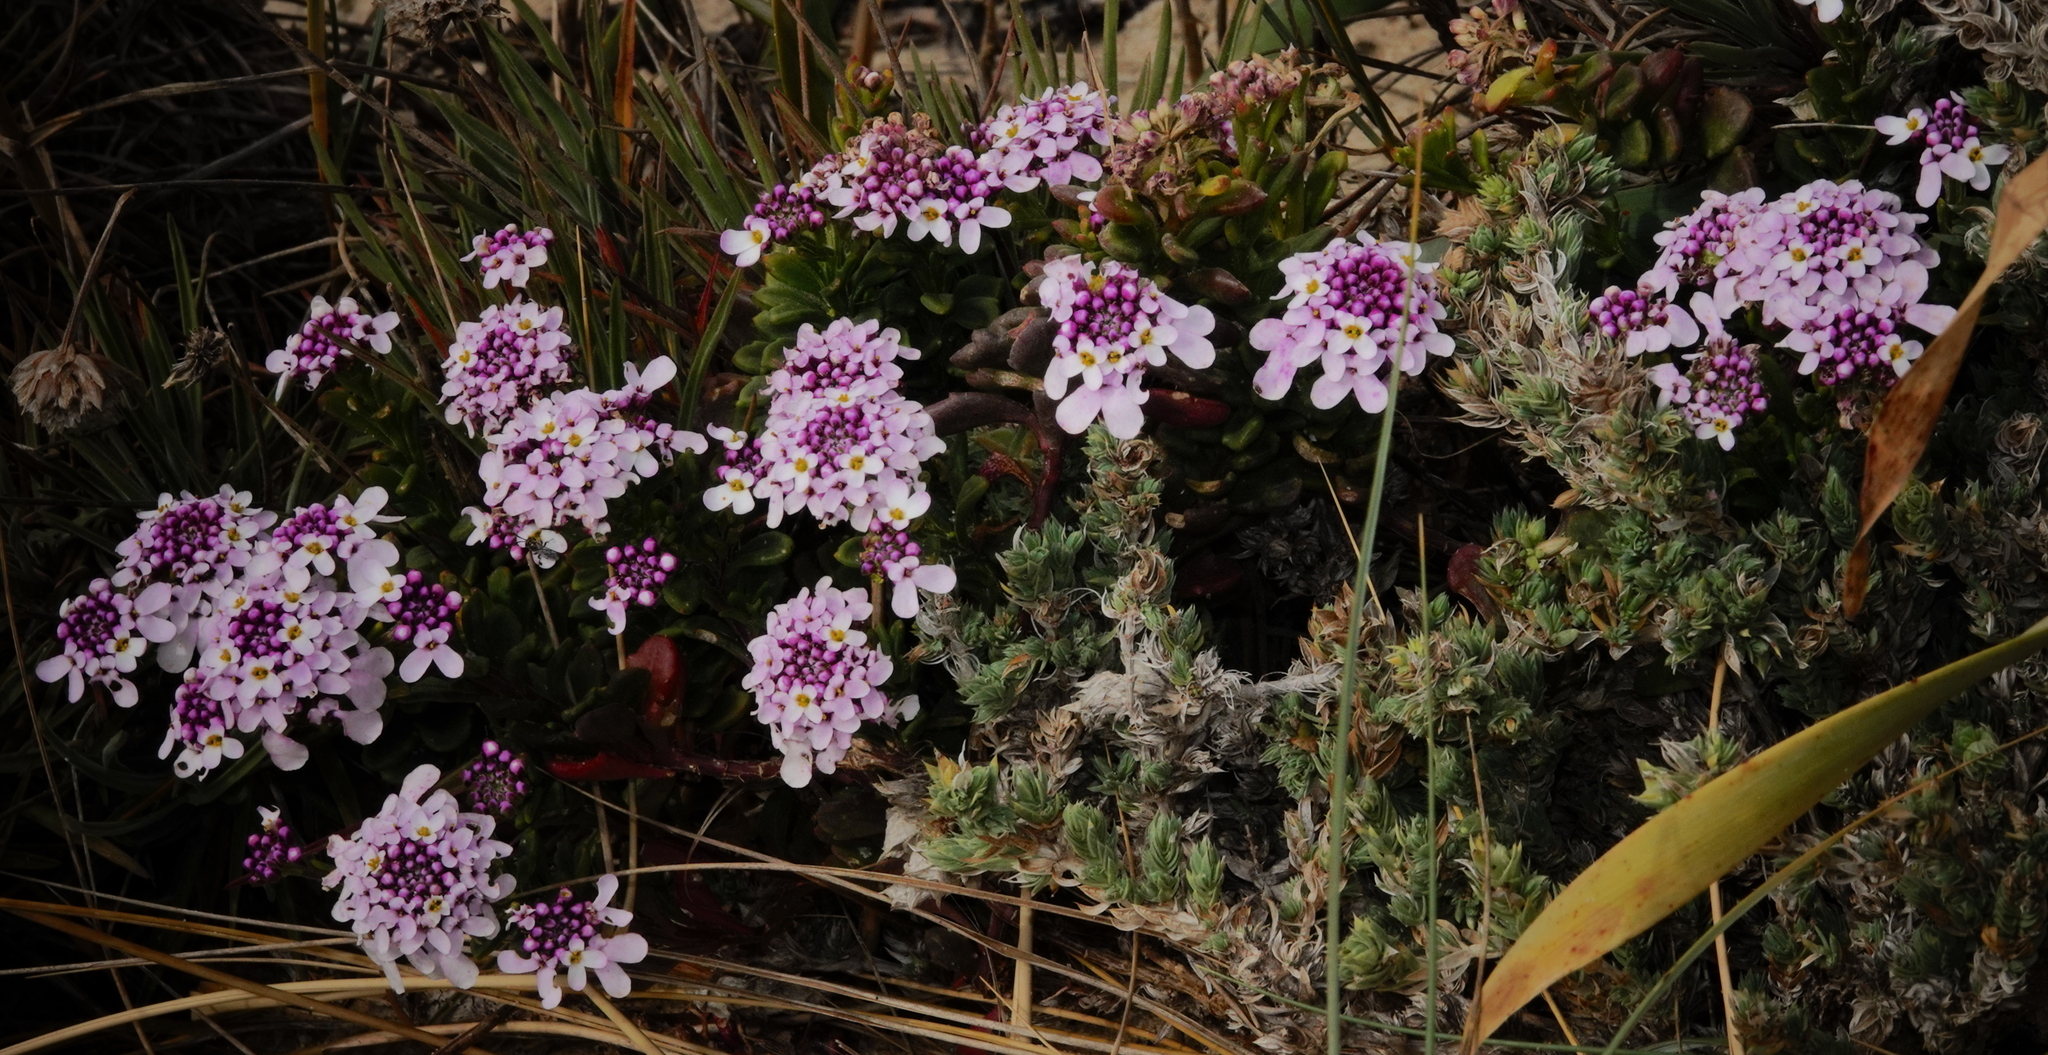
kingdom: Plantae
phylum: Tracheophyta
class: Magnoliopsida
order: Brassicales
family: Brassicaceae
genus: Iberis
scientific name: Iberis procumbens
